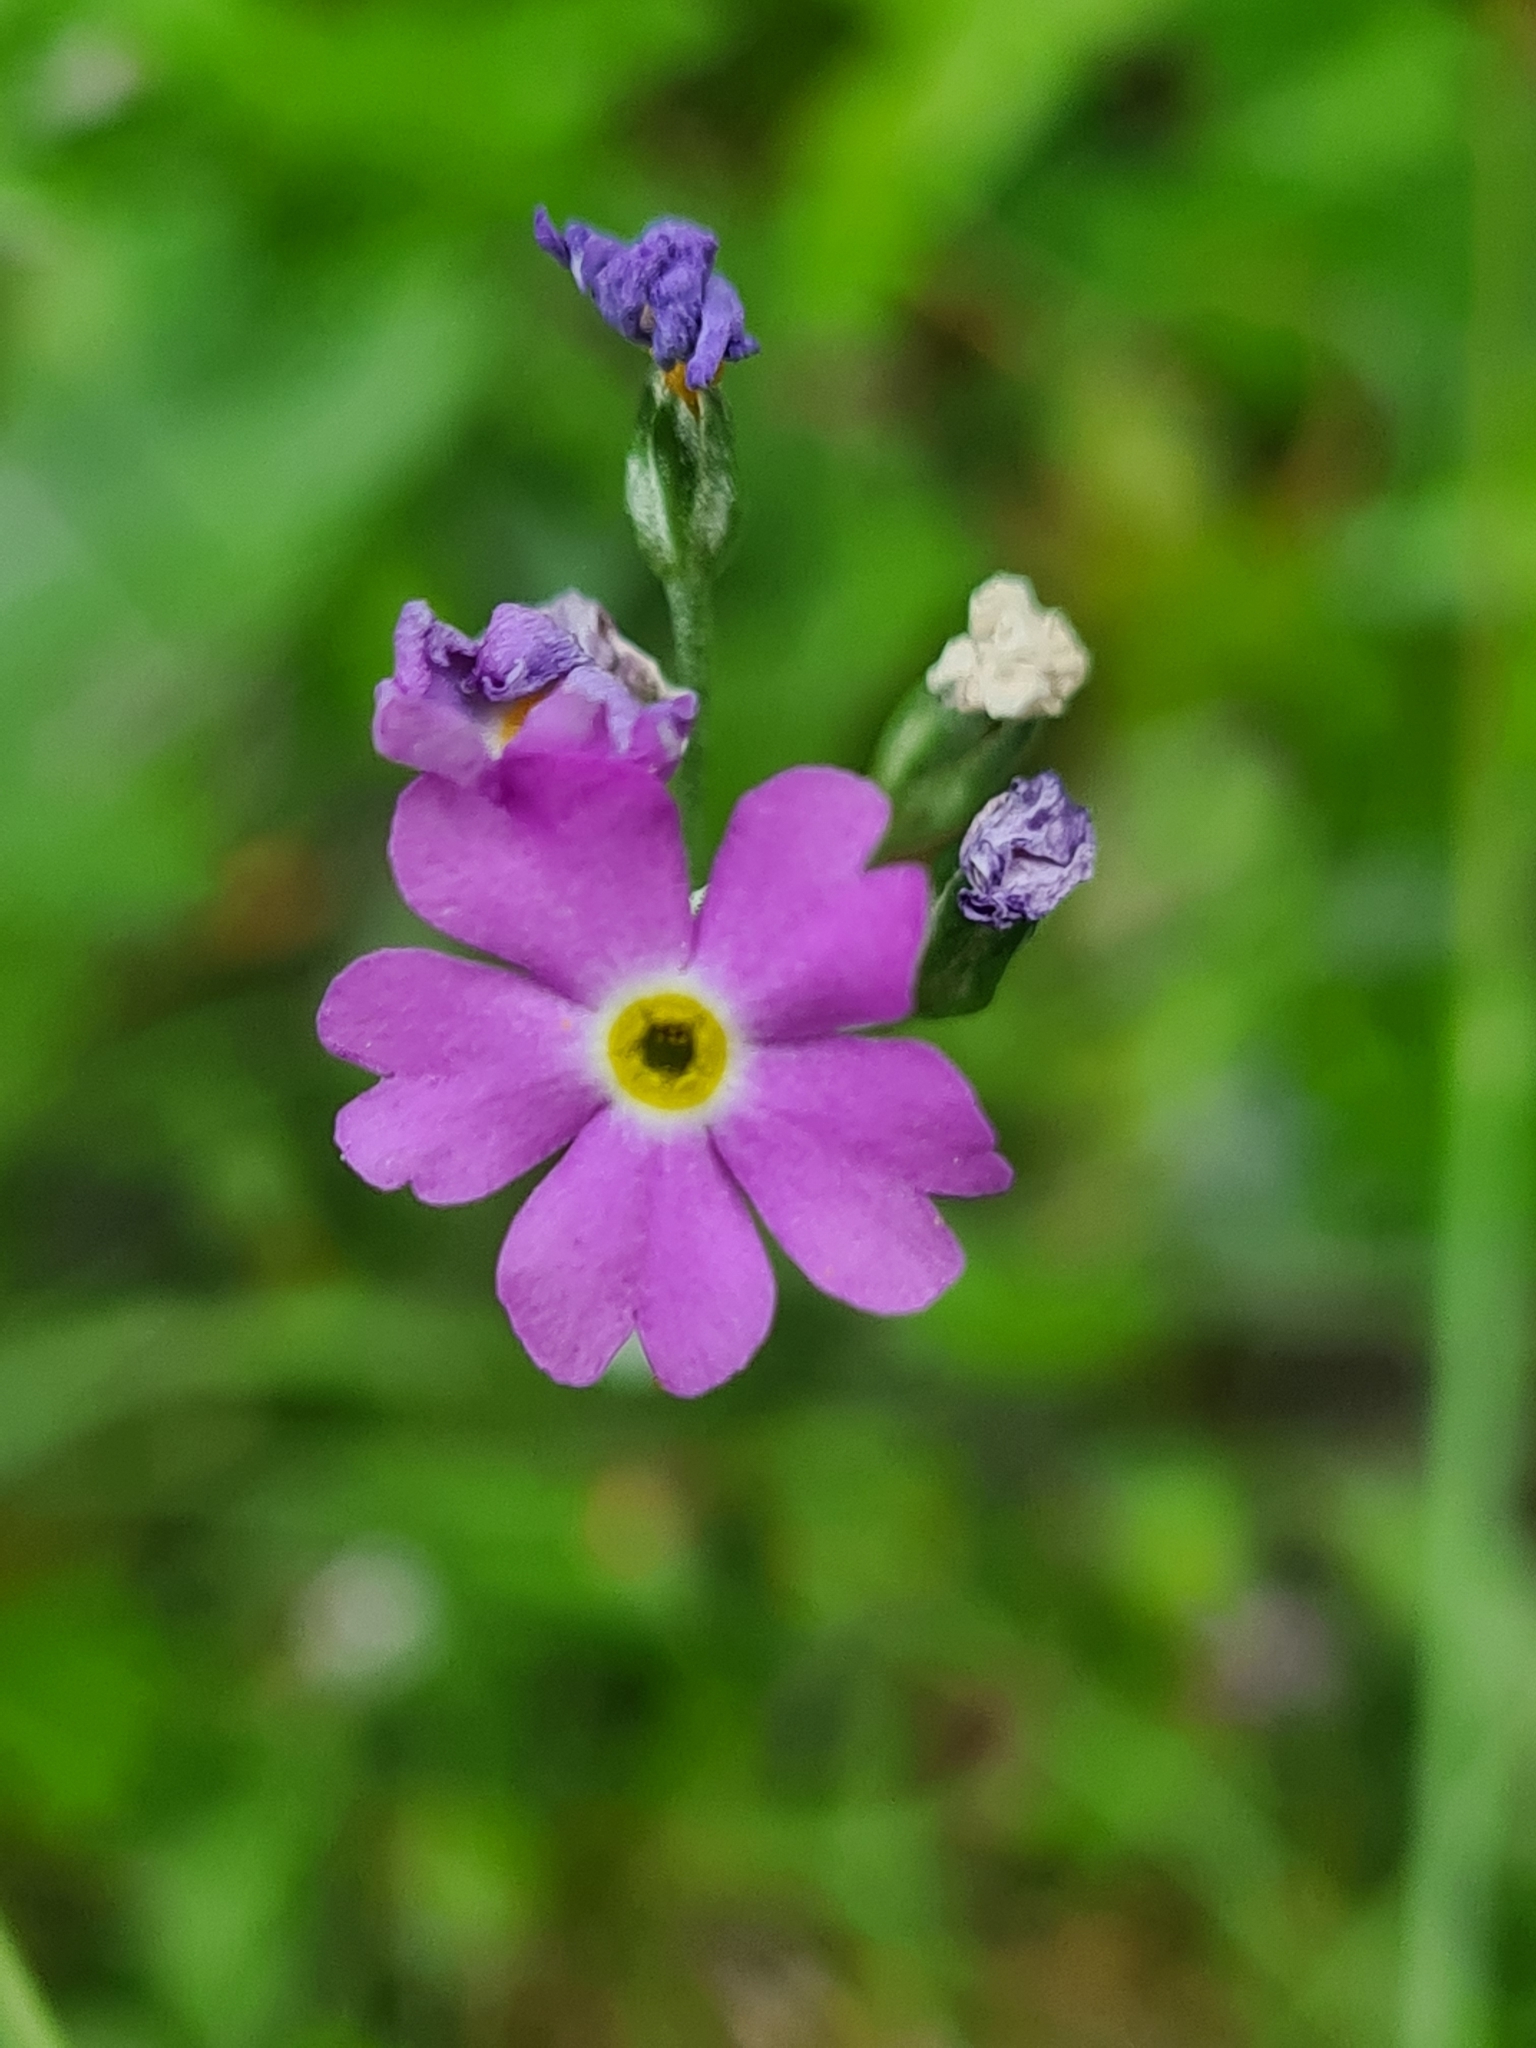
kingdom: Plantae
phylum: Tracheophyta
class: Magnoliopsida
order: Ericales
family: Primulaceae
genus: Primula
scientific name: Primula farinosa
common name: Bird's-eye primrose
